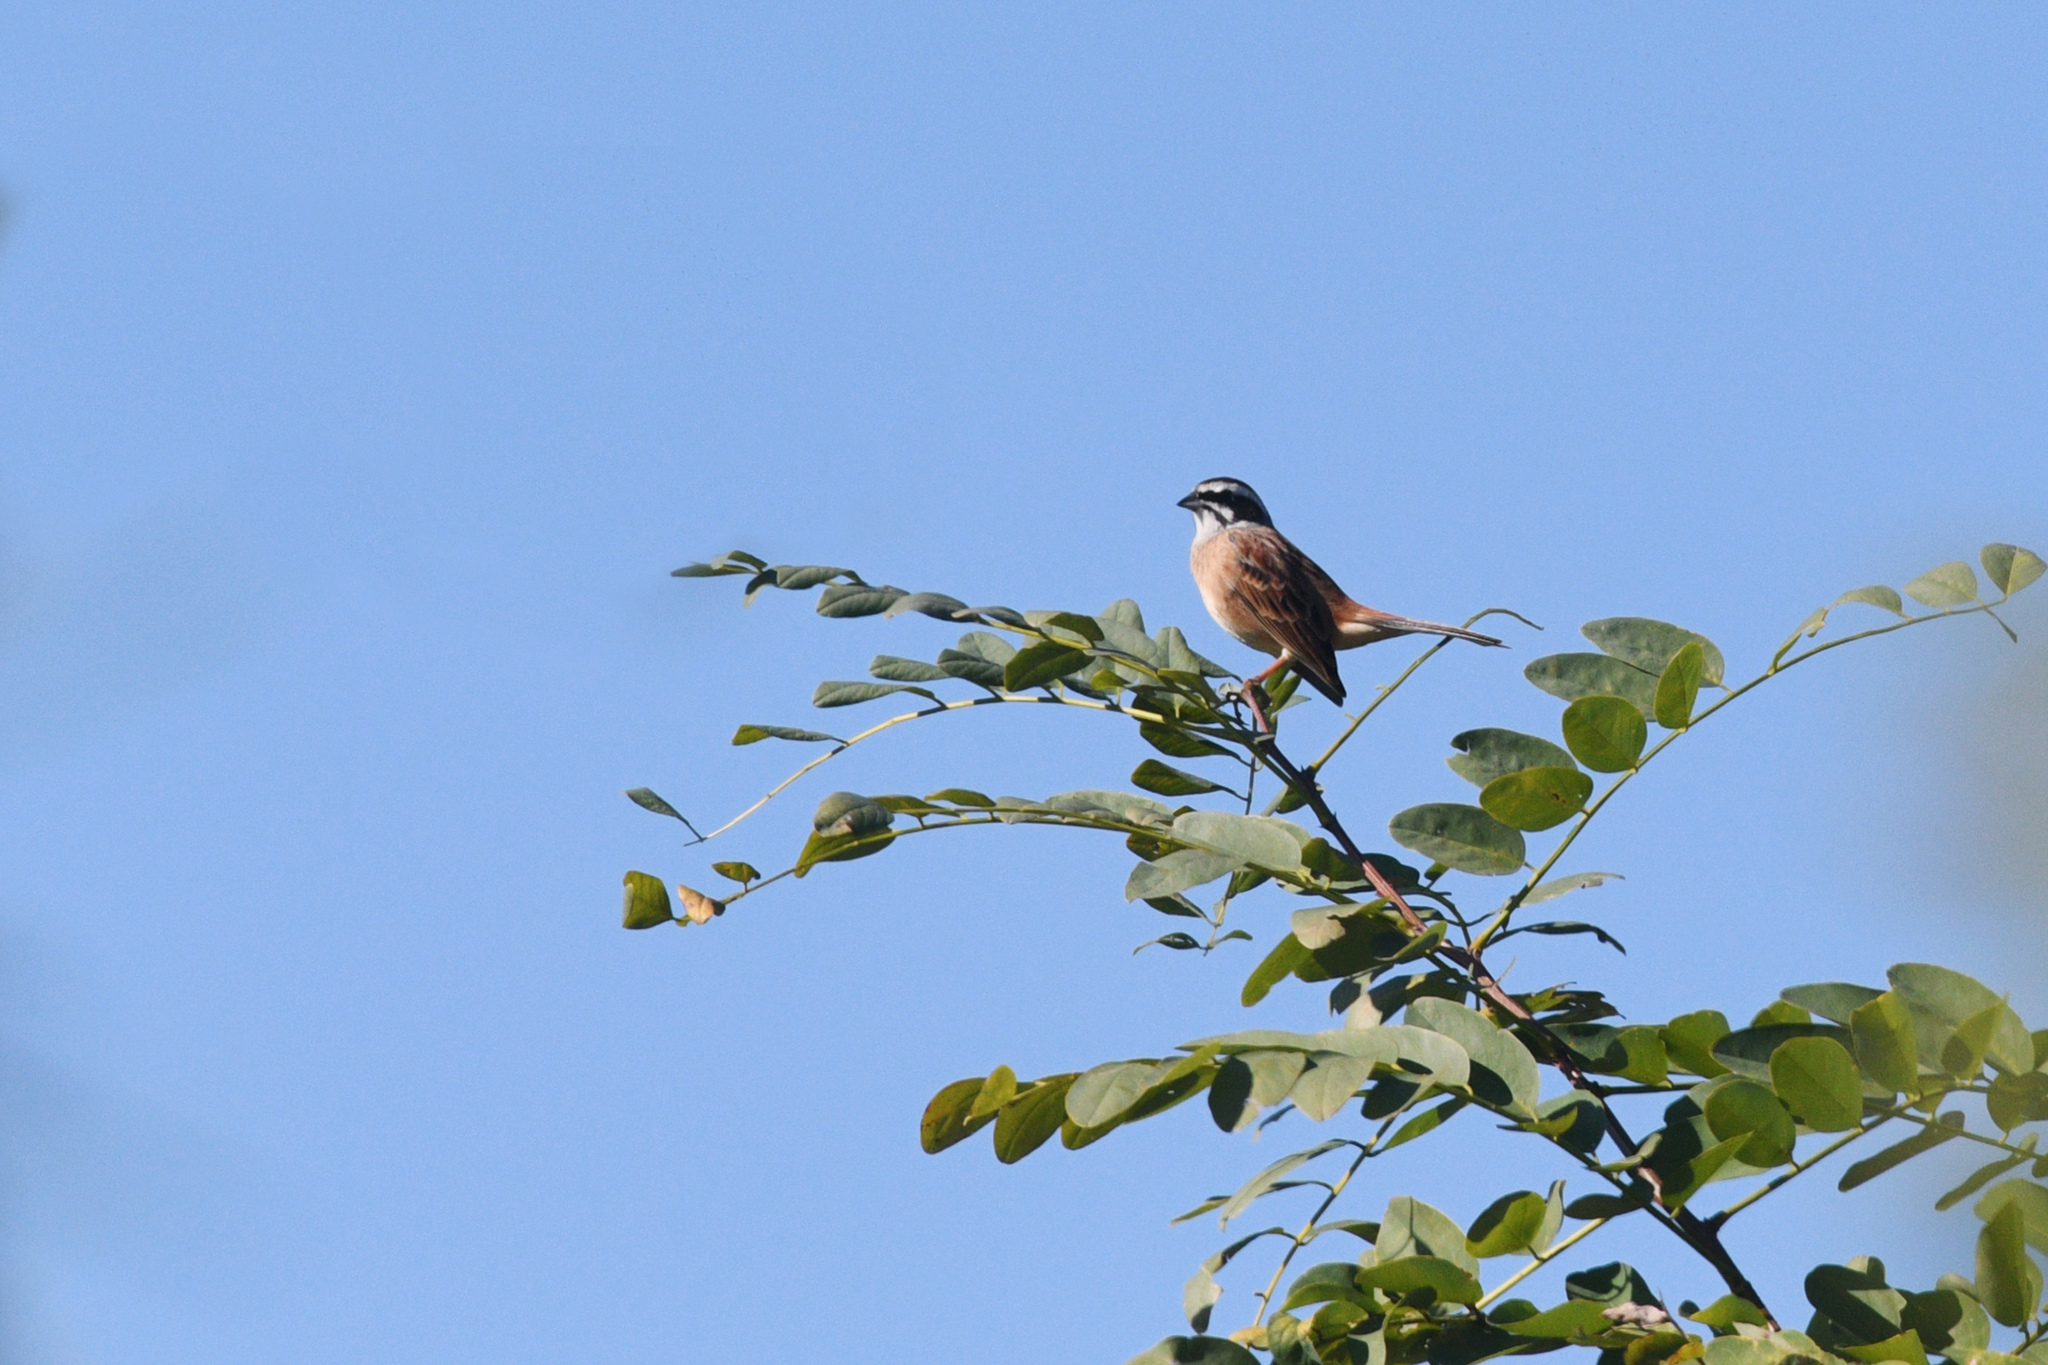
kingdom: Animalia
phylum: Chordata
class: Aves
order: Passeriformes
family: Emberizidae
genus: Emberiza
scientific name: Emberiza cioides
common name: Meadow bunting
